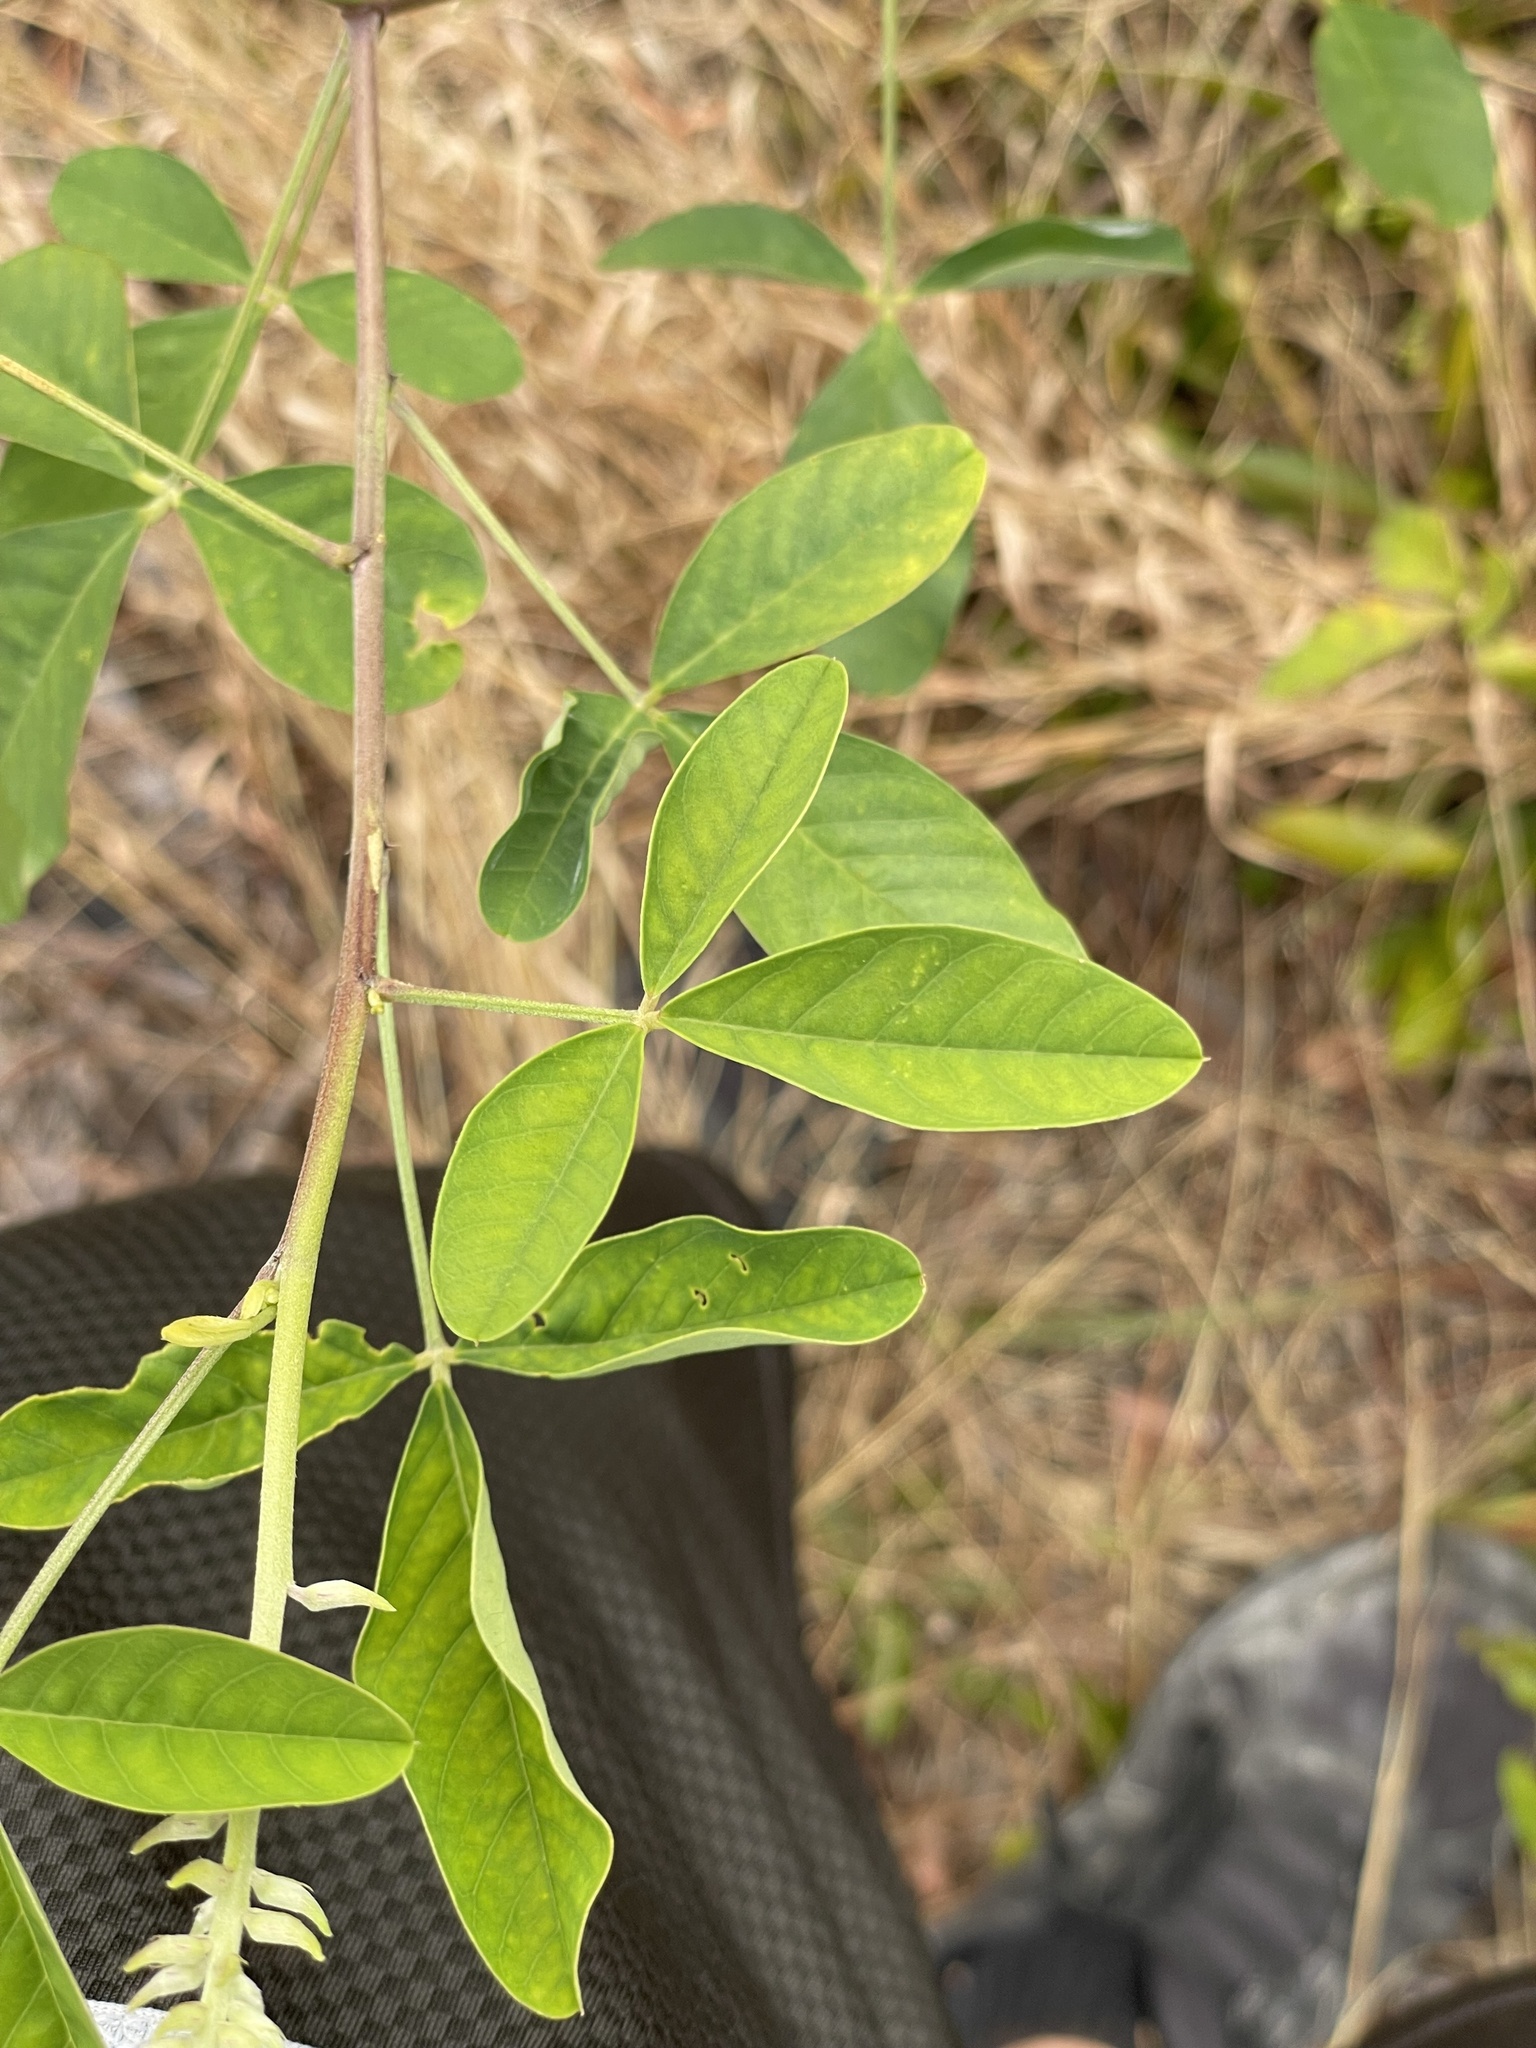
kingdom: Plantae
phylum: Tracheophyta
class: Magnoliopsida
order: Fabales
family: Fabaceae
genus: Crotalaria
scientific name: Crotalaria pallida
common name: Smooth rattlebox
